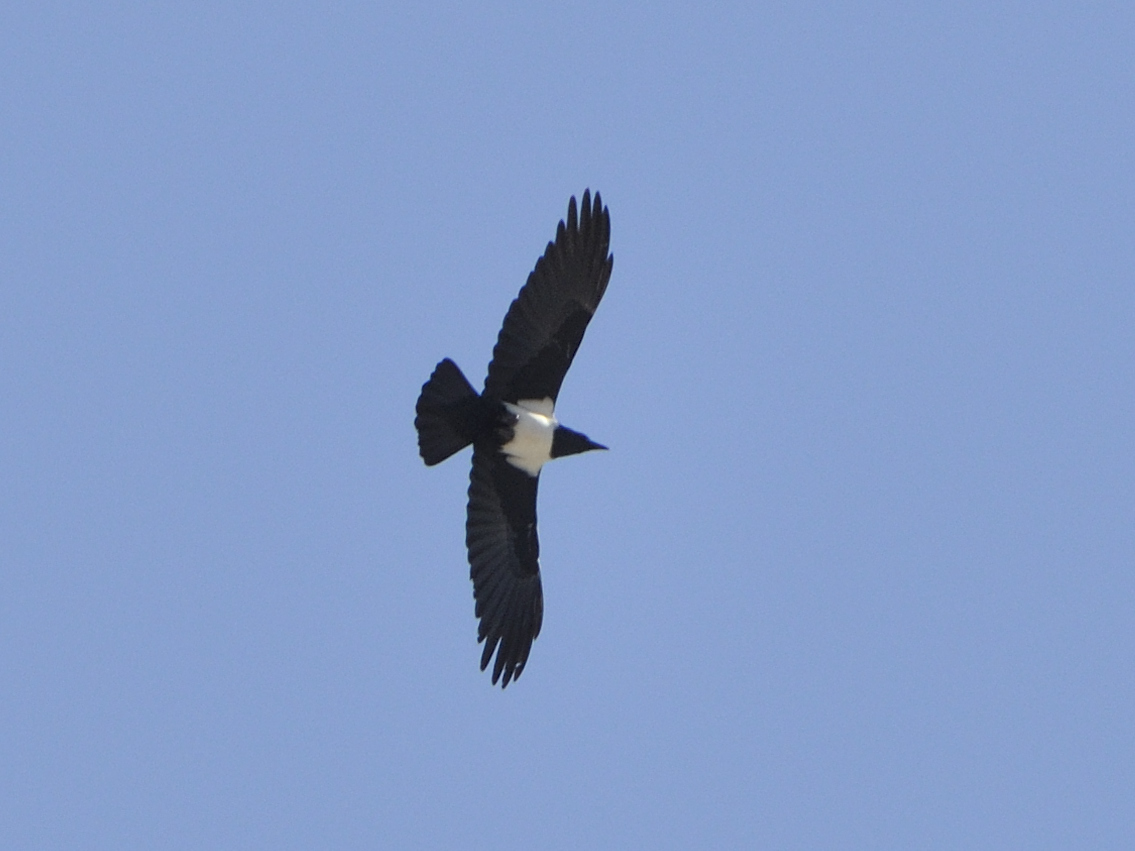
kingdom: Animalia
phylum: Chordata
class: Aves
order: Passeriformes
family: Corvidae
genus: Corvus
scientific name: Corvus albus
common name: Pied crow
